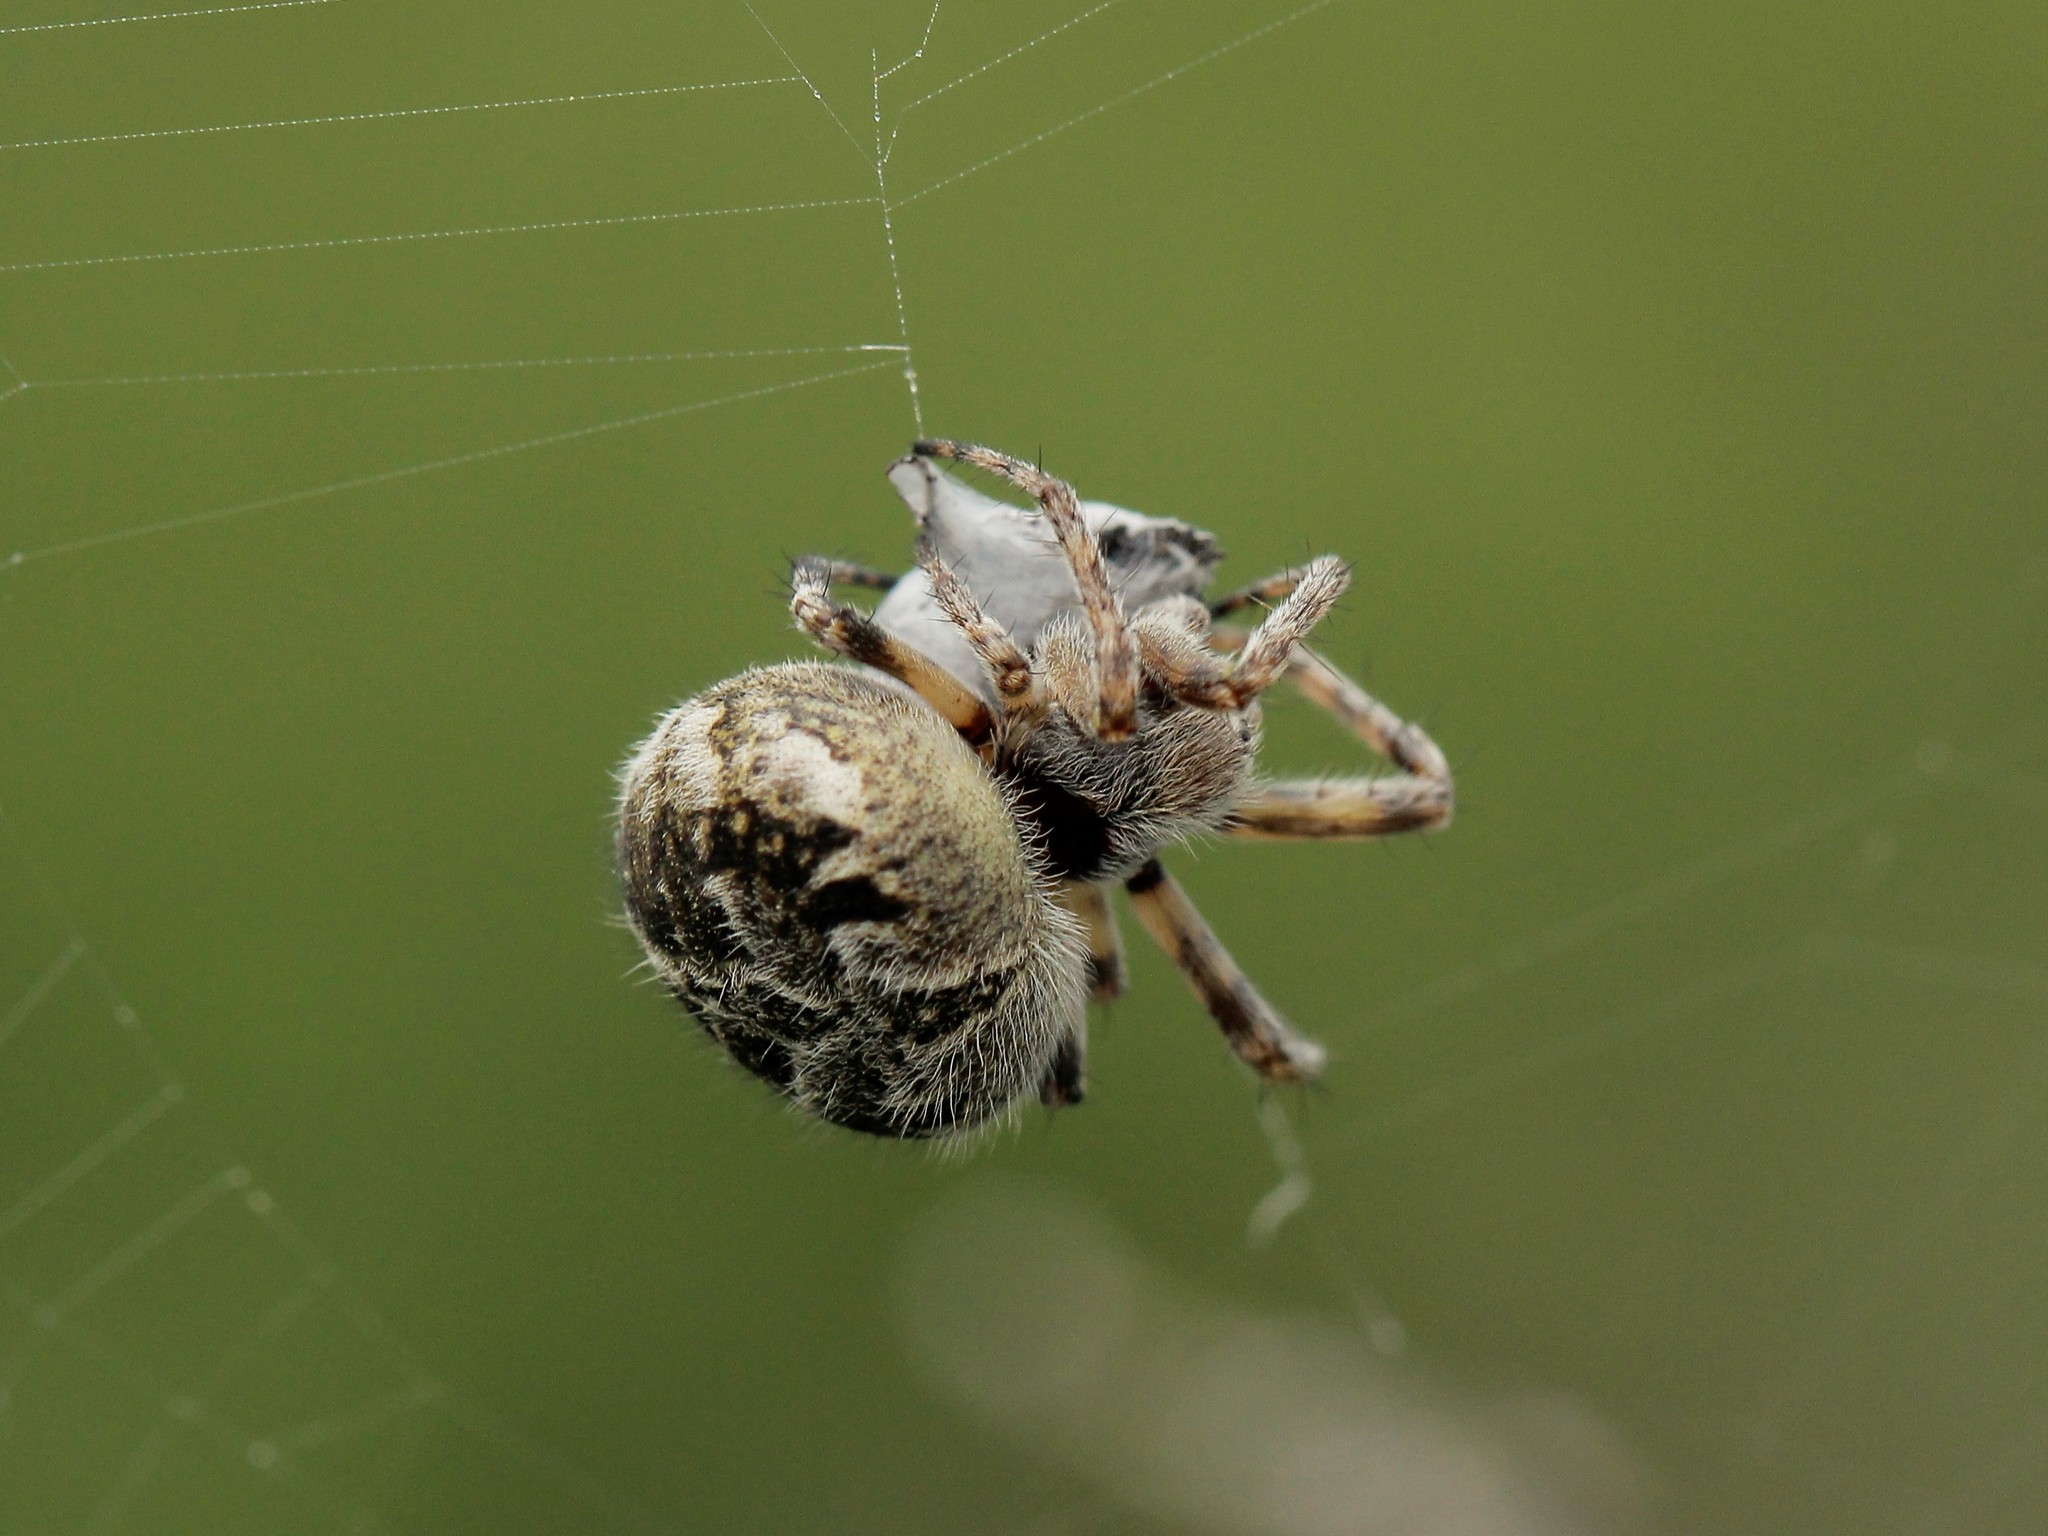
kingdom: Animalia
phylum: Arthropoda
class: Arachnida
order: Araneae
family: Araneidae
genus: Agalenatea
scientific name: Agalenatea redii
